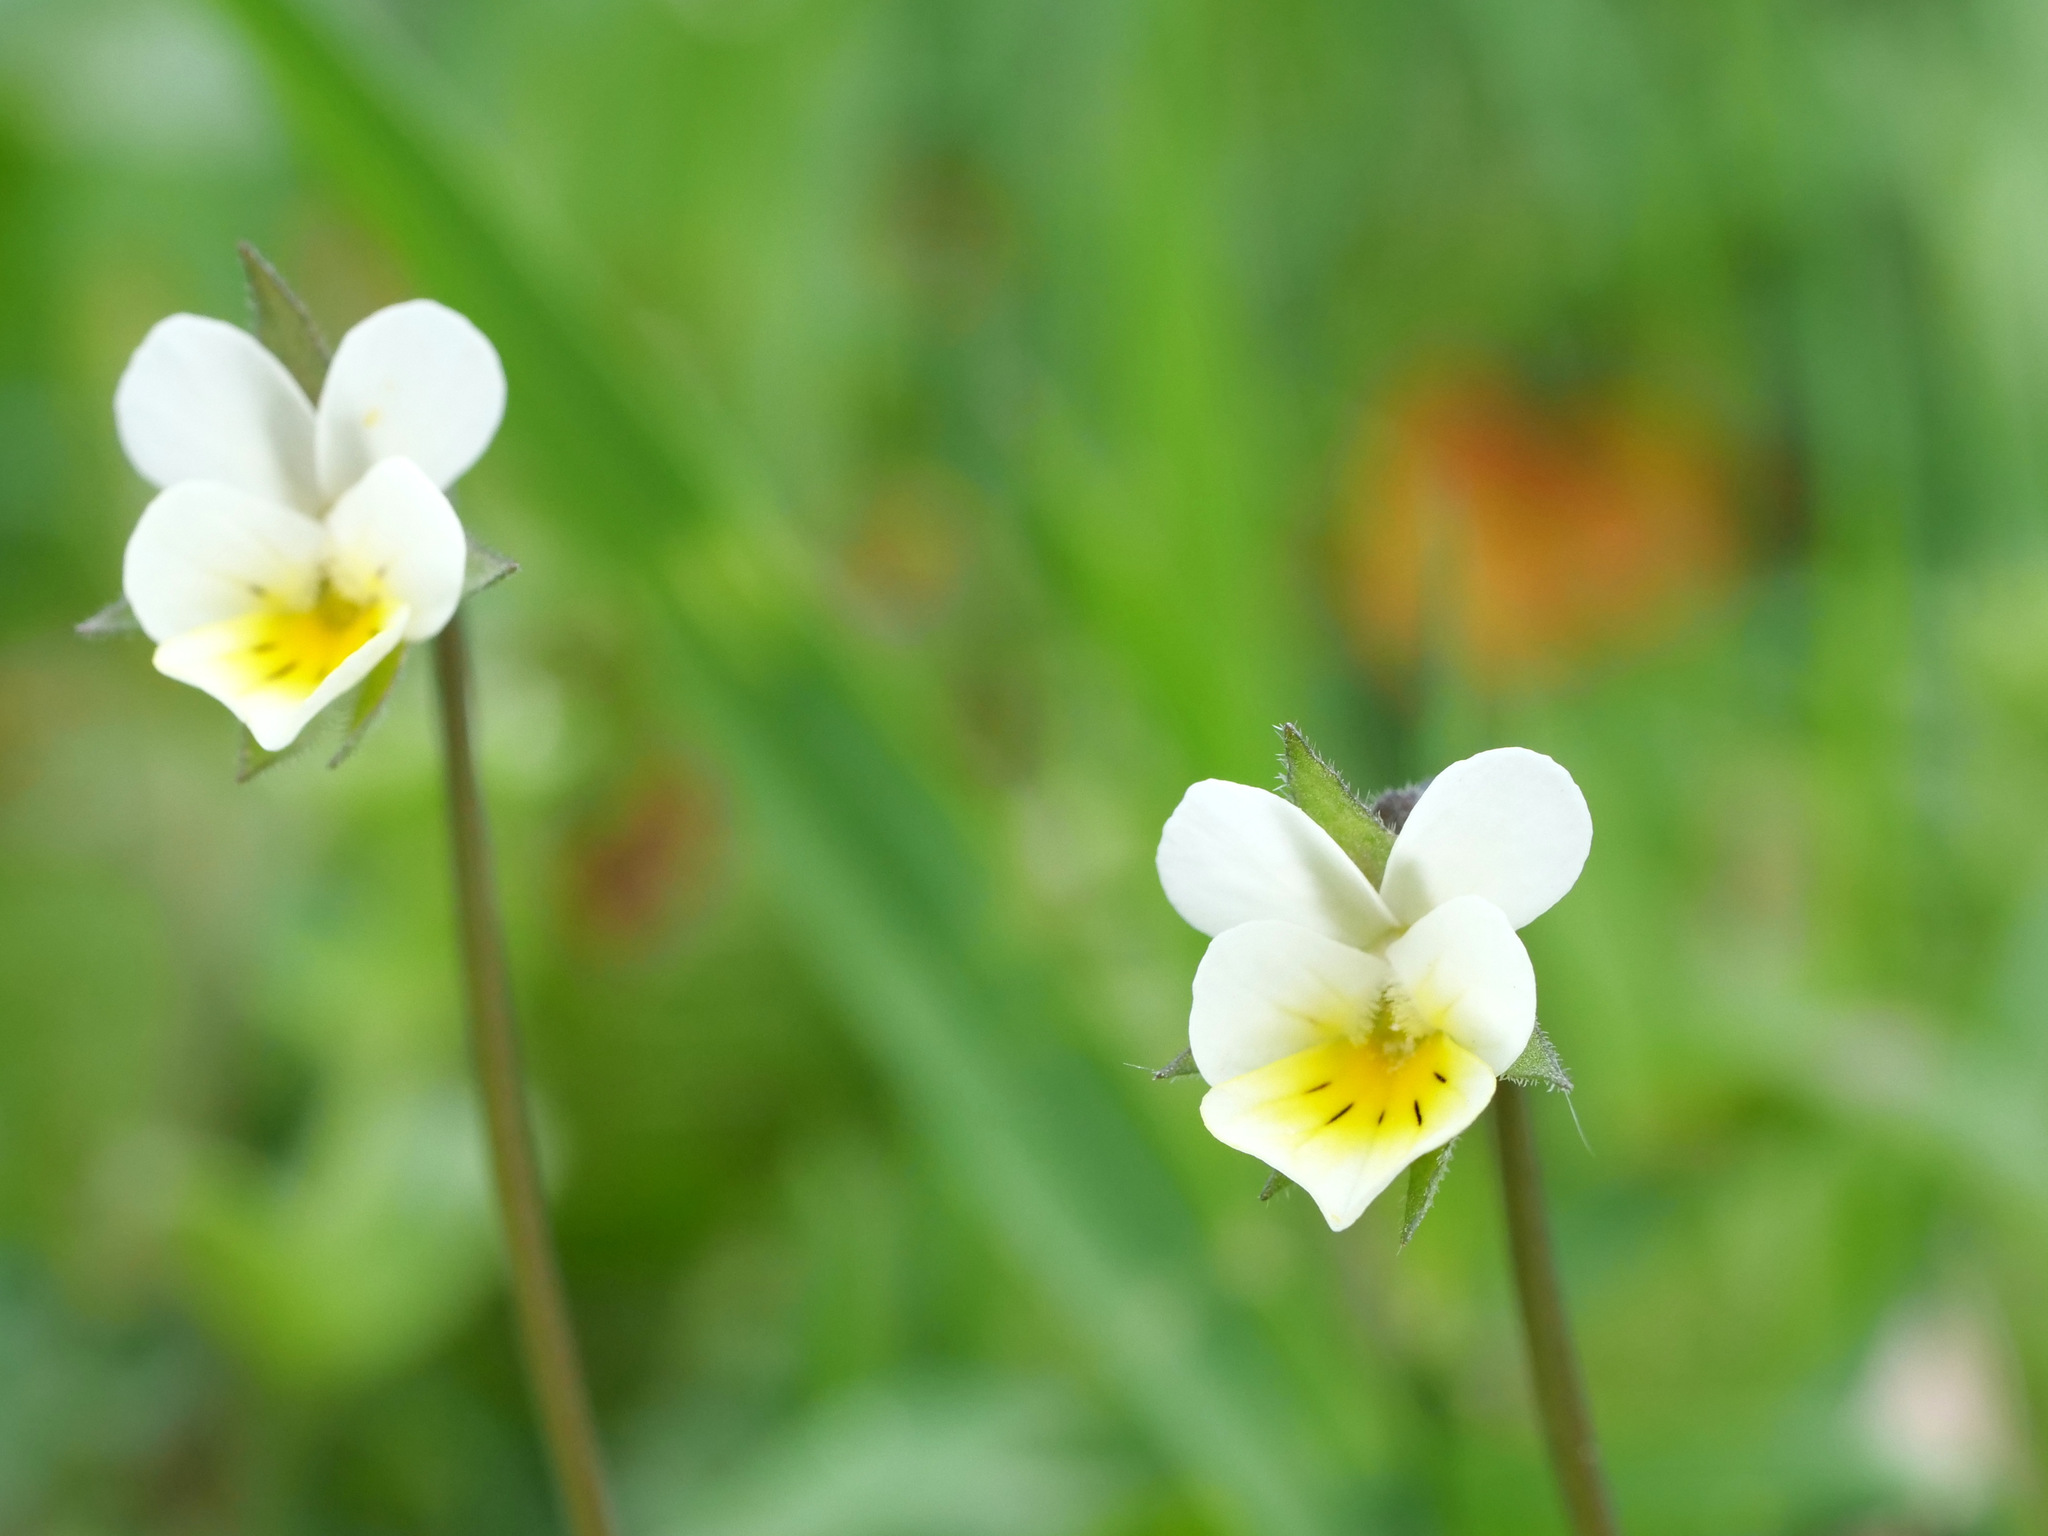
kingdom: Plantae
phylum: Tracheophyta
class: Magnoliopsida
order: Malpighiales
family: Violaceae
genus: Viola
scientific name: Viola arvensis
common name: Field pansy
